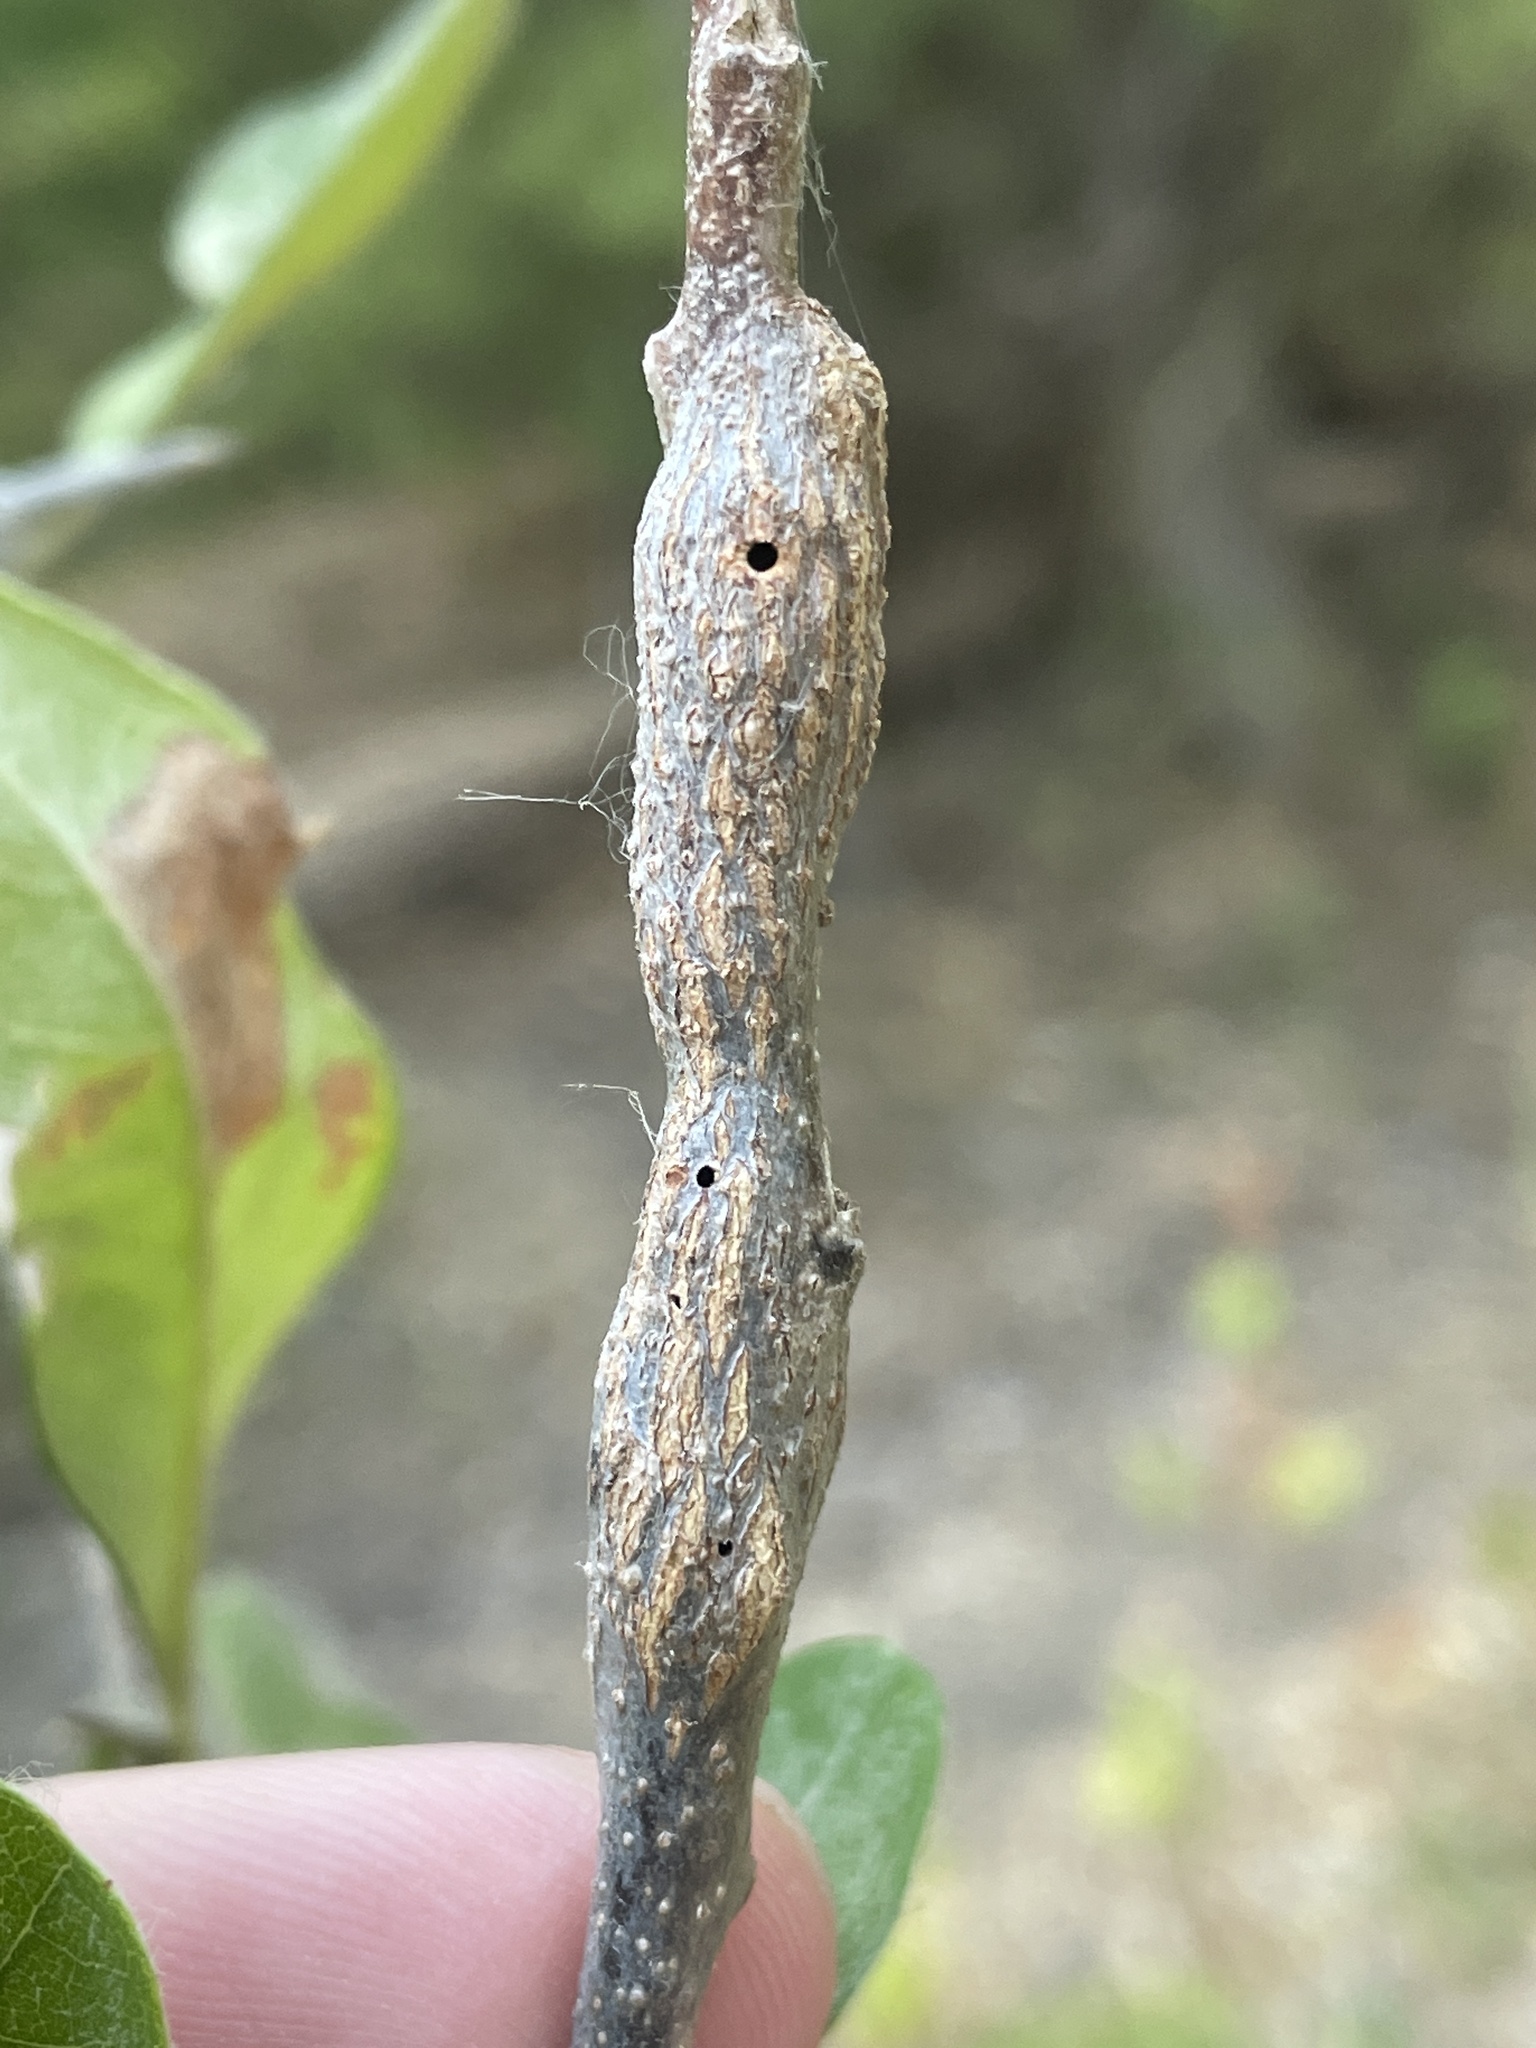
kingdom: Animalia
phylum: Arthropoda
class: Insecta
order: Diptera
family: Cecidomyiidae
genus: Bruggmanniella
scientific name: Bruggmanniella bumeliae
